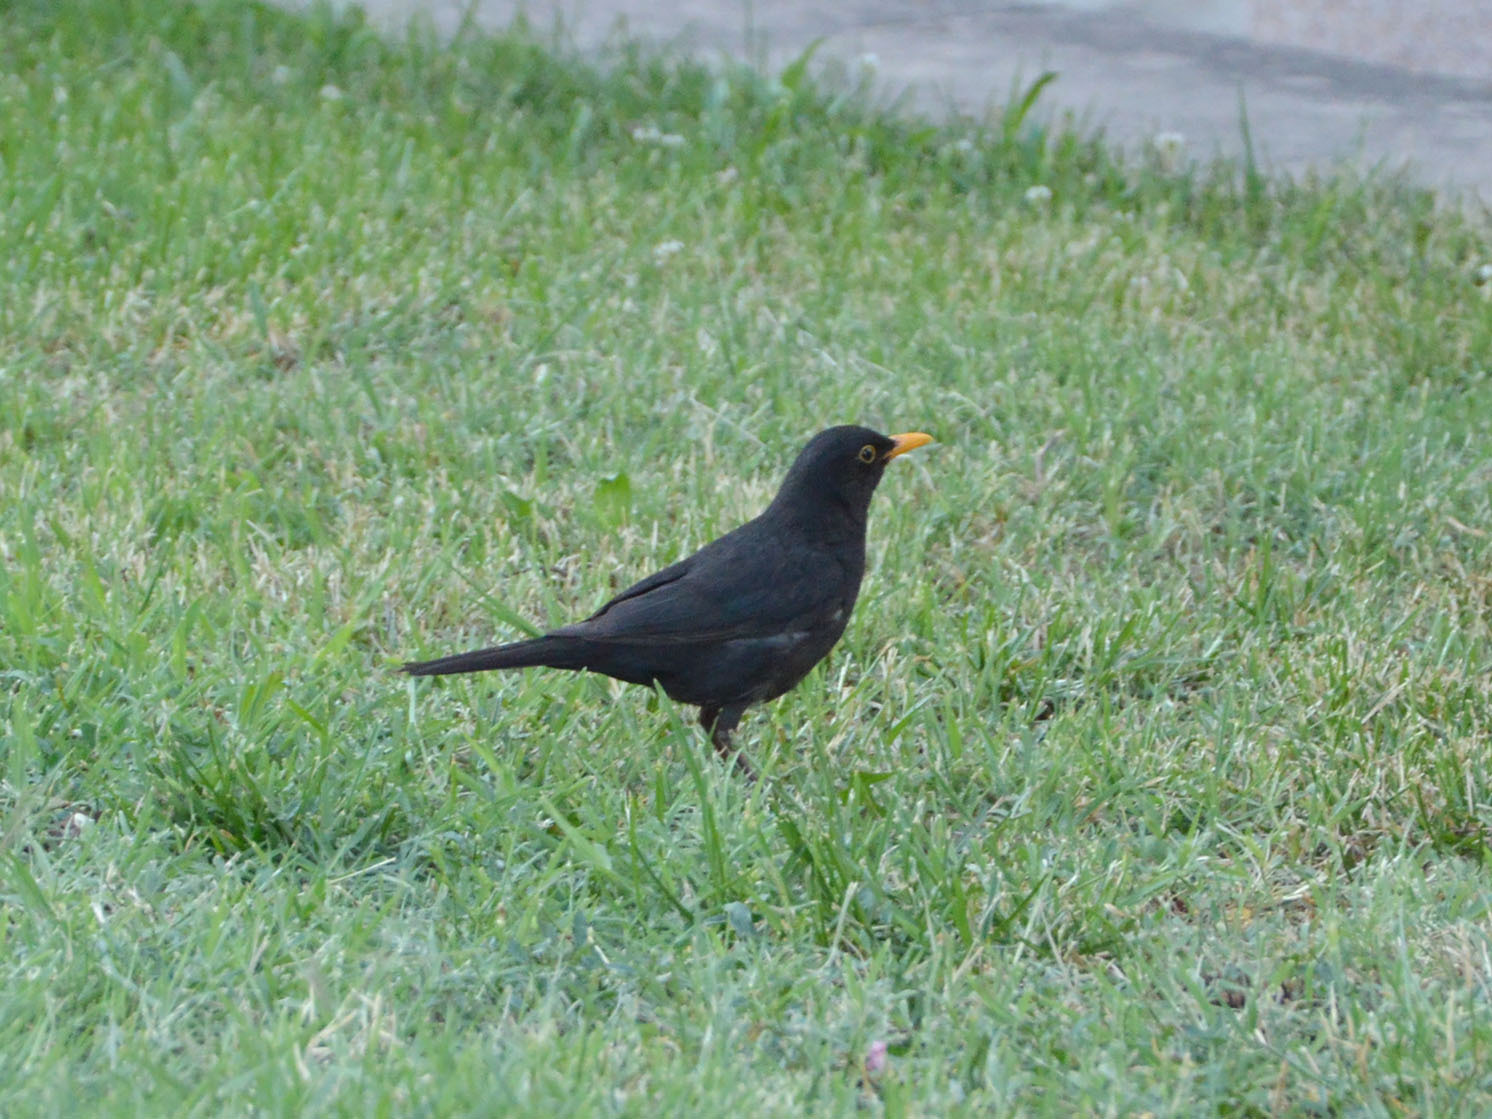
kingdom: Animalia
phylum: Chordata
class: Aves
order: Passeriformes
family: Turdidae
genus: Turdus
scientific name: Turdus merula
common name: Common blackbird
